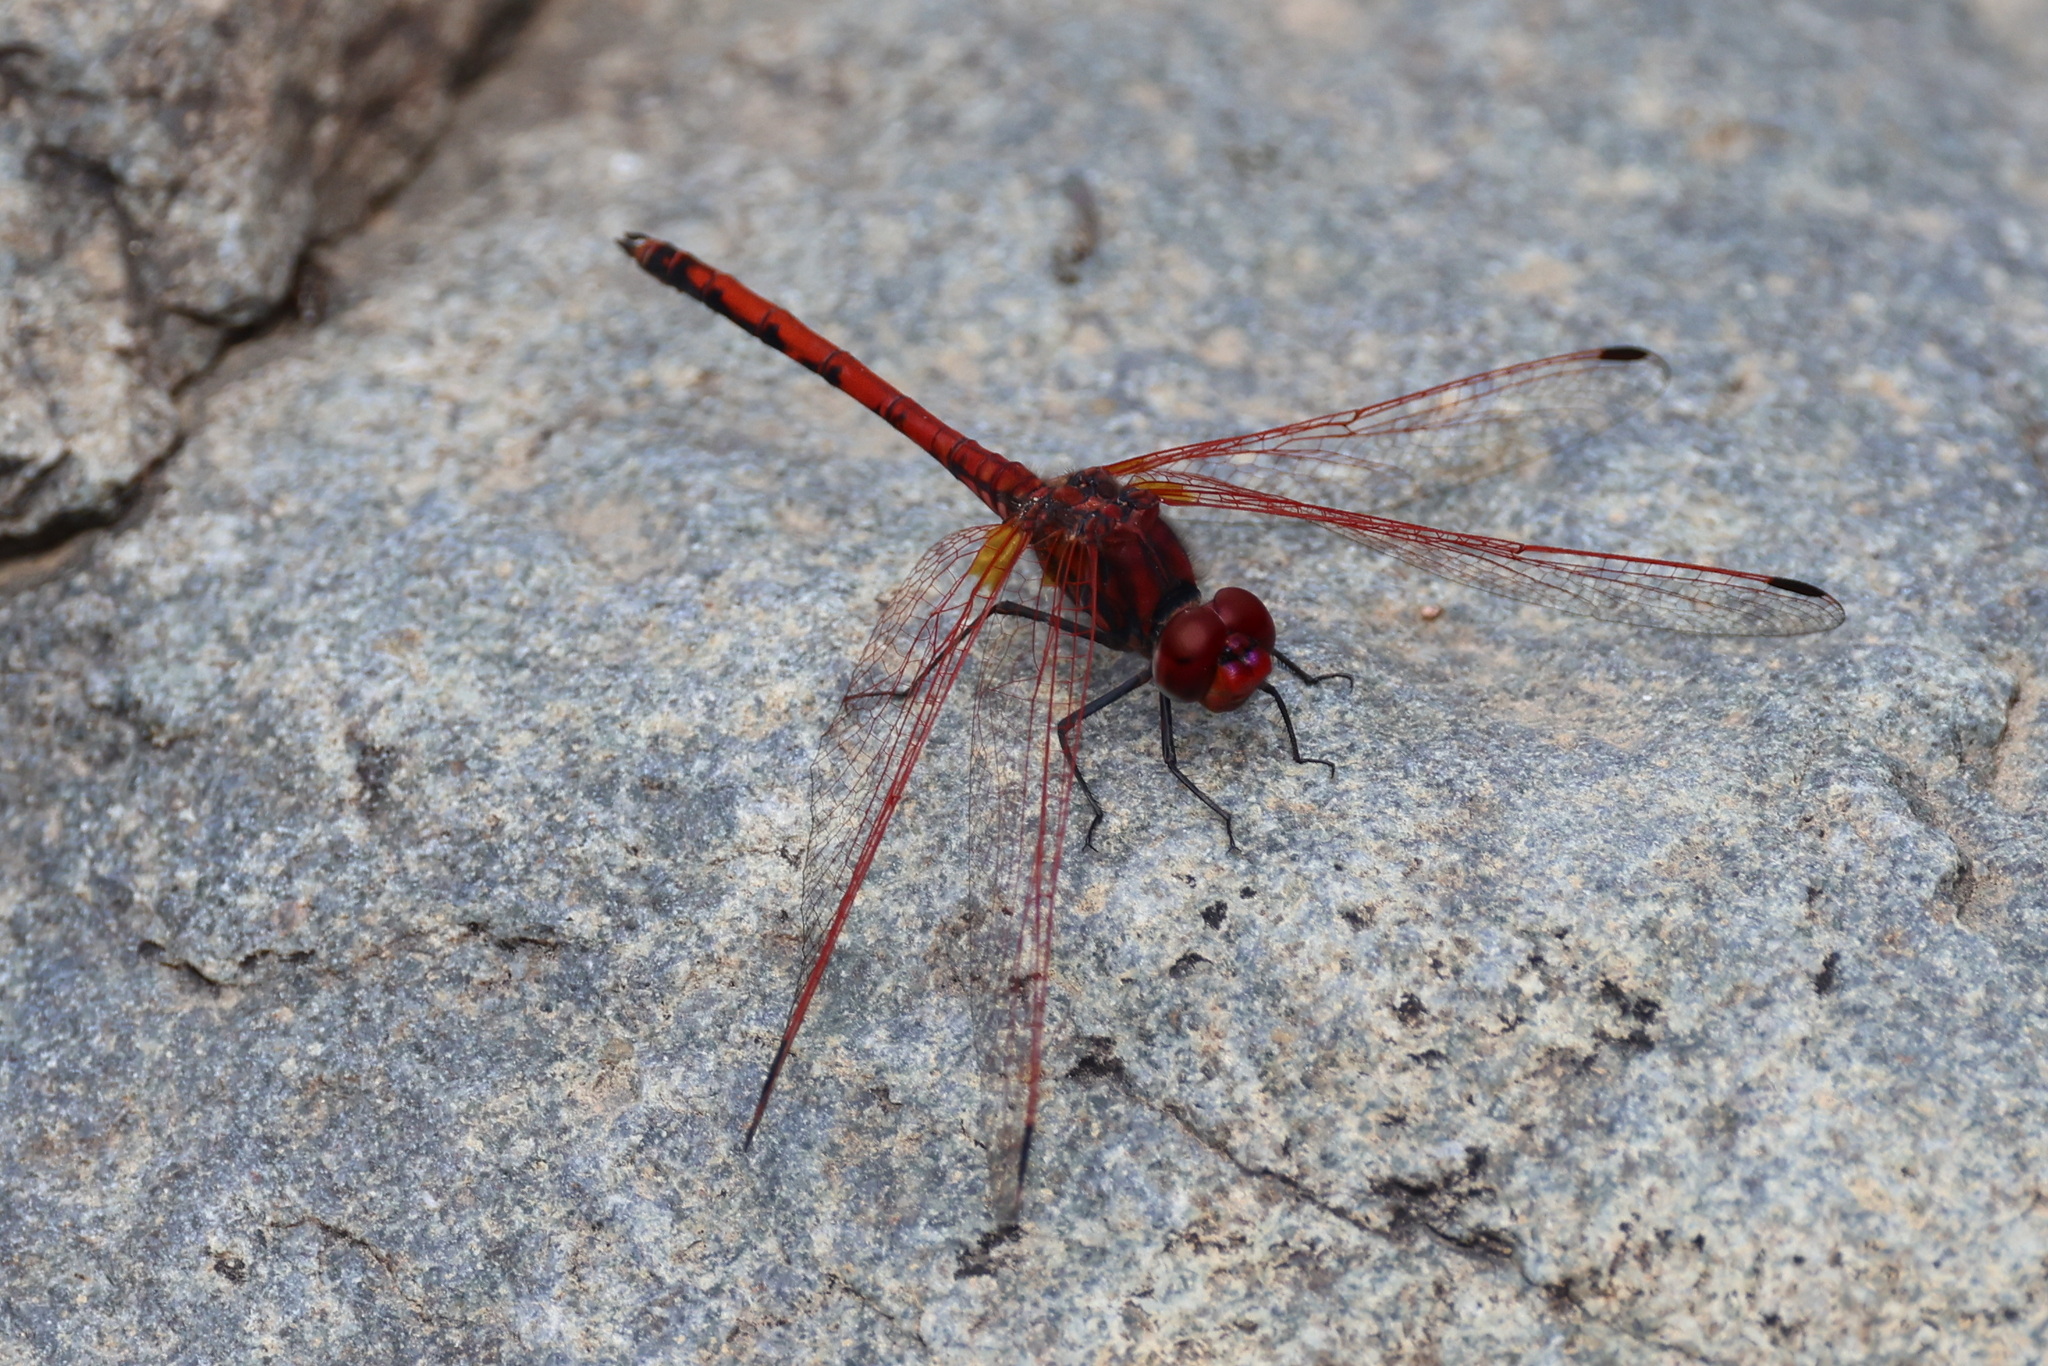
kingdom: Animalia
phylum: Arthropoda
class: Insecta
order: Odonata
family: Libellulidae
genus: Trithemis
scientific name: Trithemis arteriosa
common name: Red-veined dropwing
